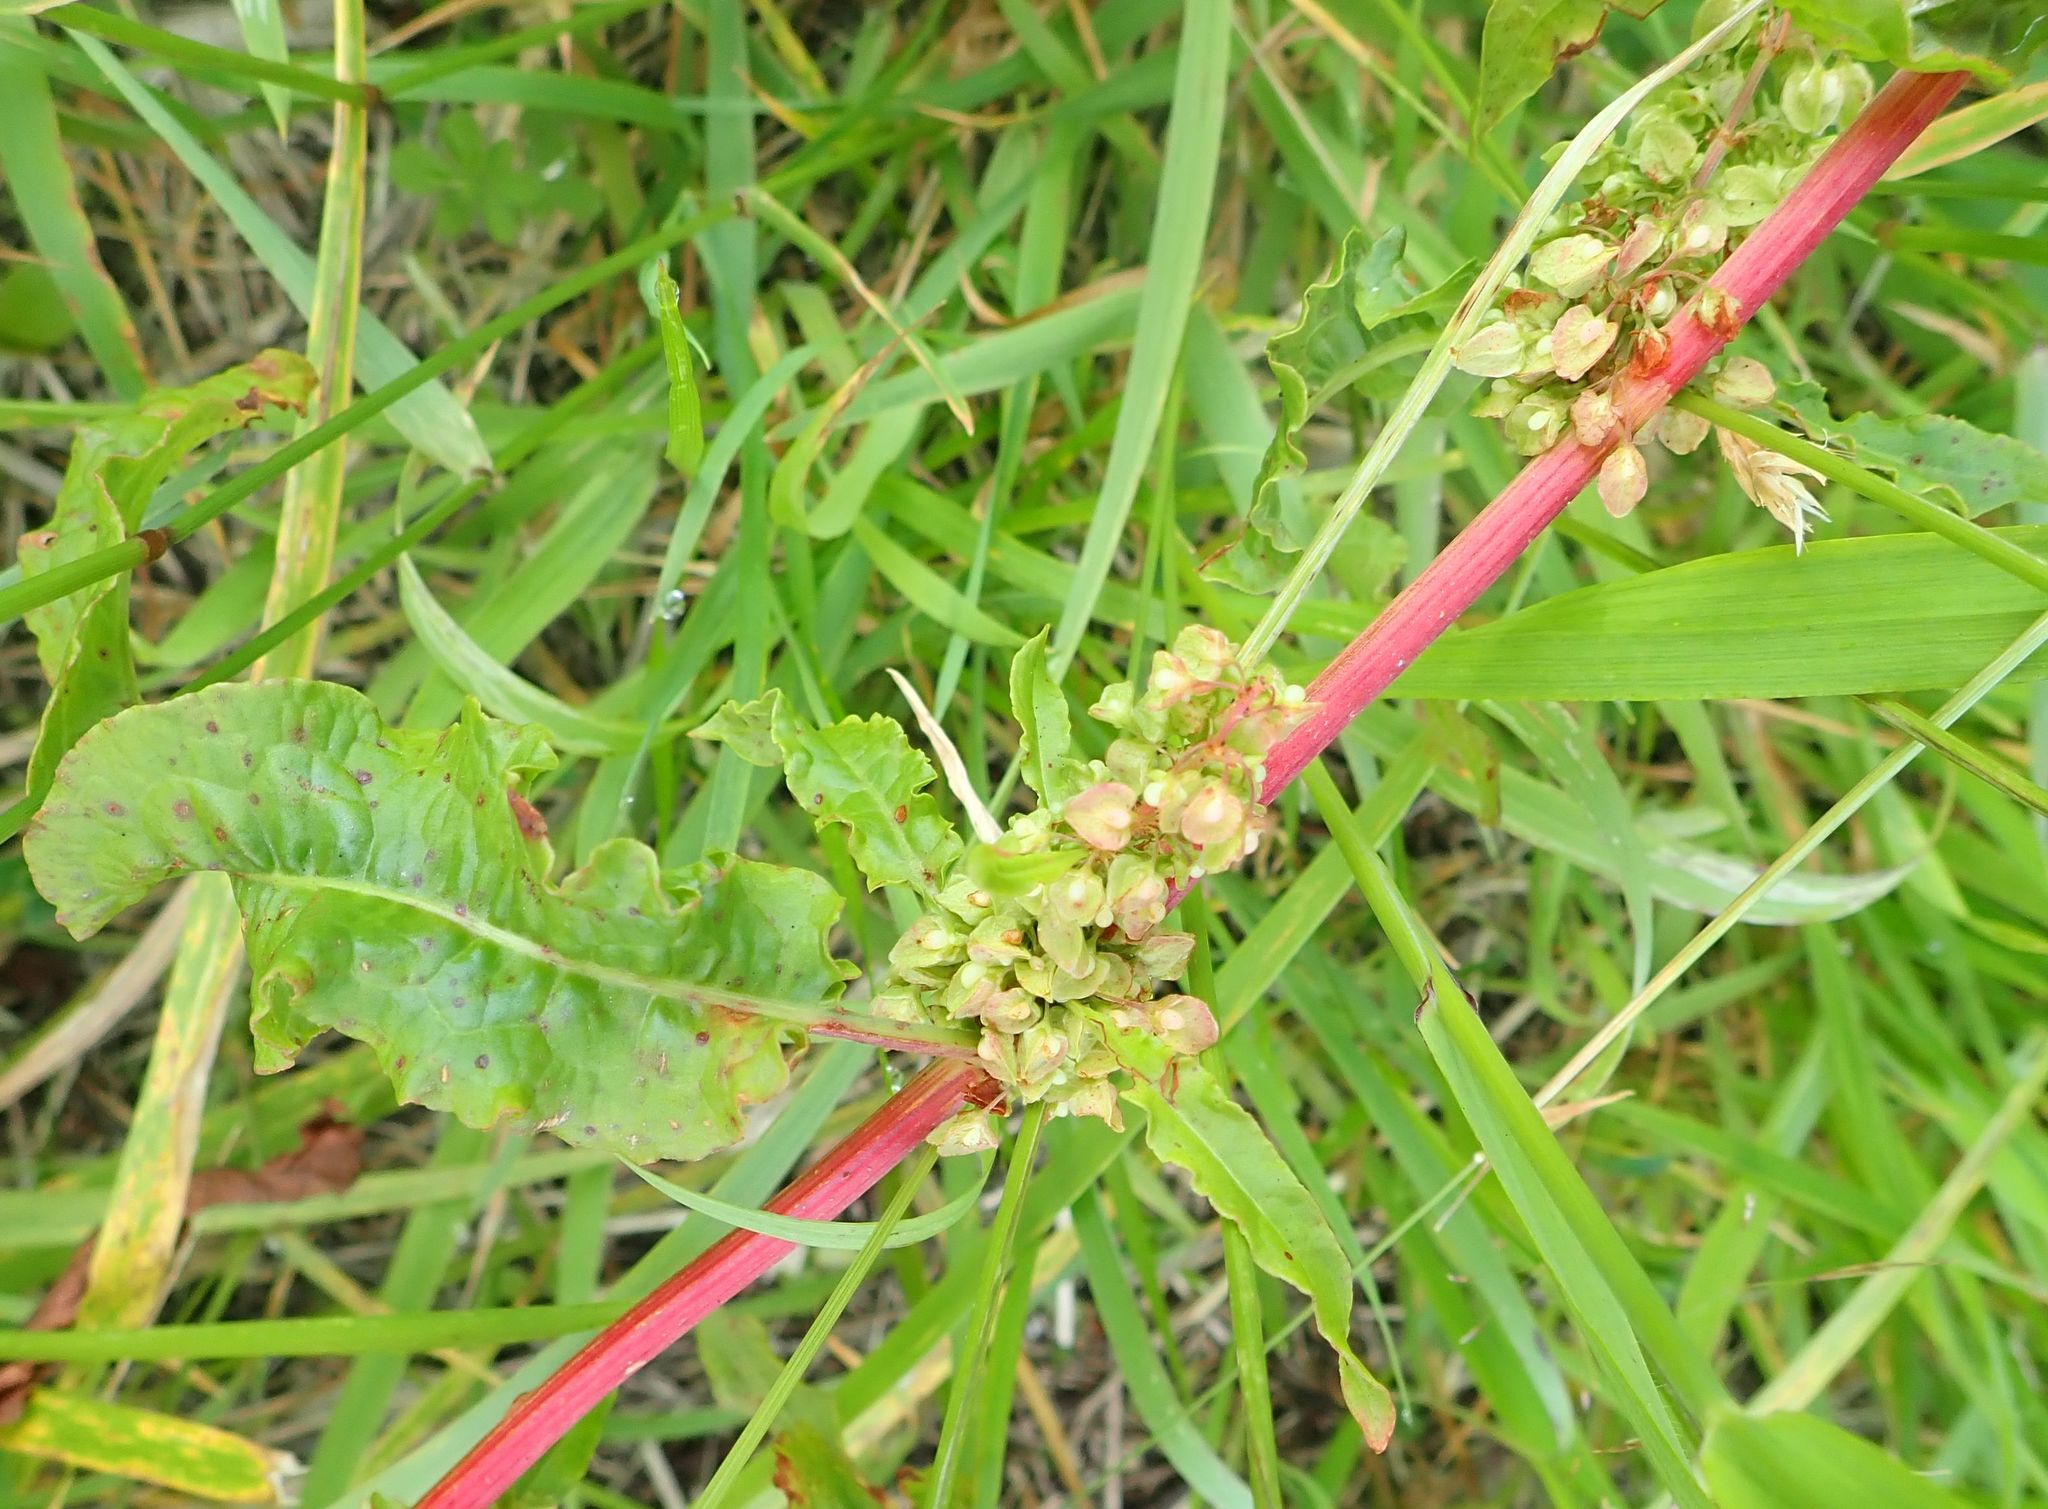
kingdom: Plantae
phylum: Tracheophyta
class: Magnoliopsida
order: Caryophyllales
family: Polygonaceae
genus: Rumex
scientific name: Rumex crispus
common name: Curled dock
